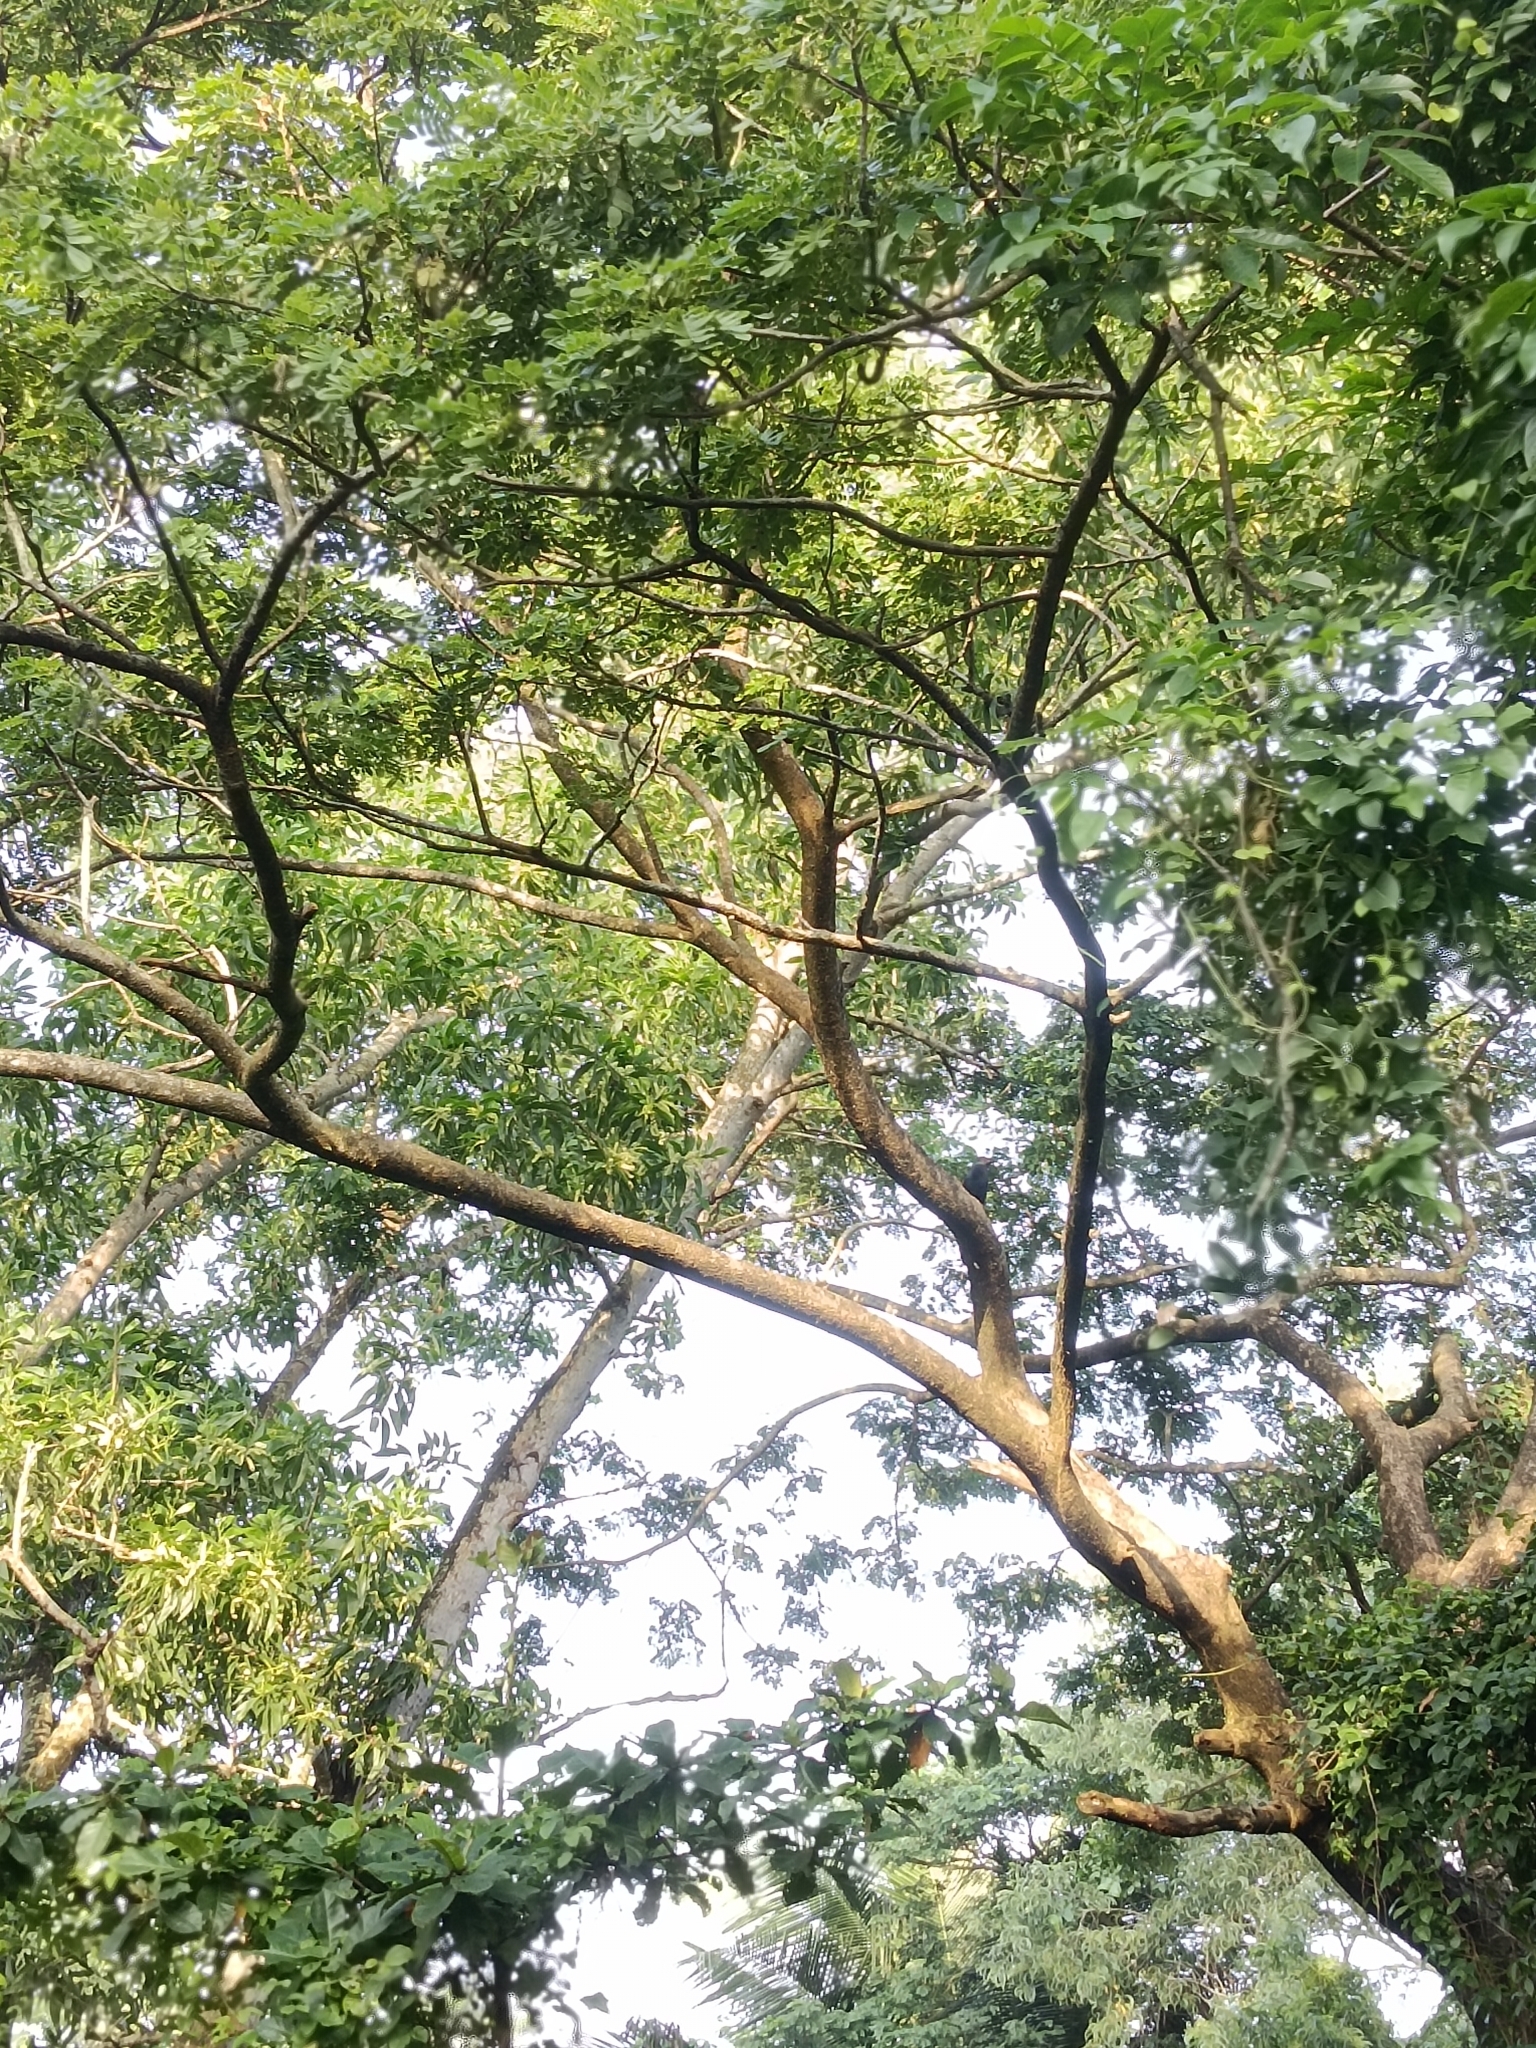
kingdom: Animalia
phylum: Chordata
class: Aves
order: Cuculiformes
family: Cuculidae
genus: Centropus
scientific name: Centropus sinensis
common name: Greater coucal
